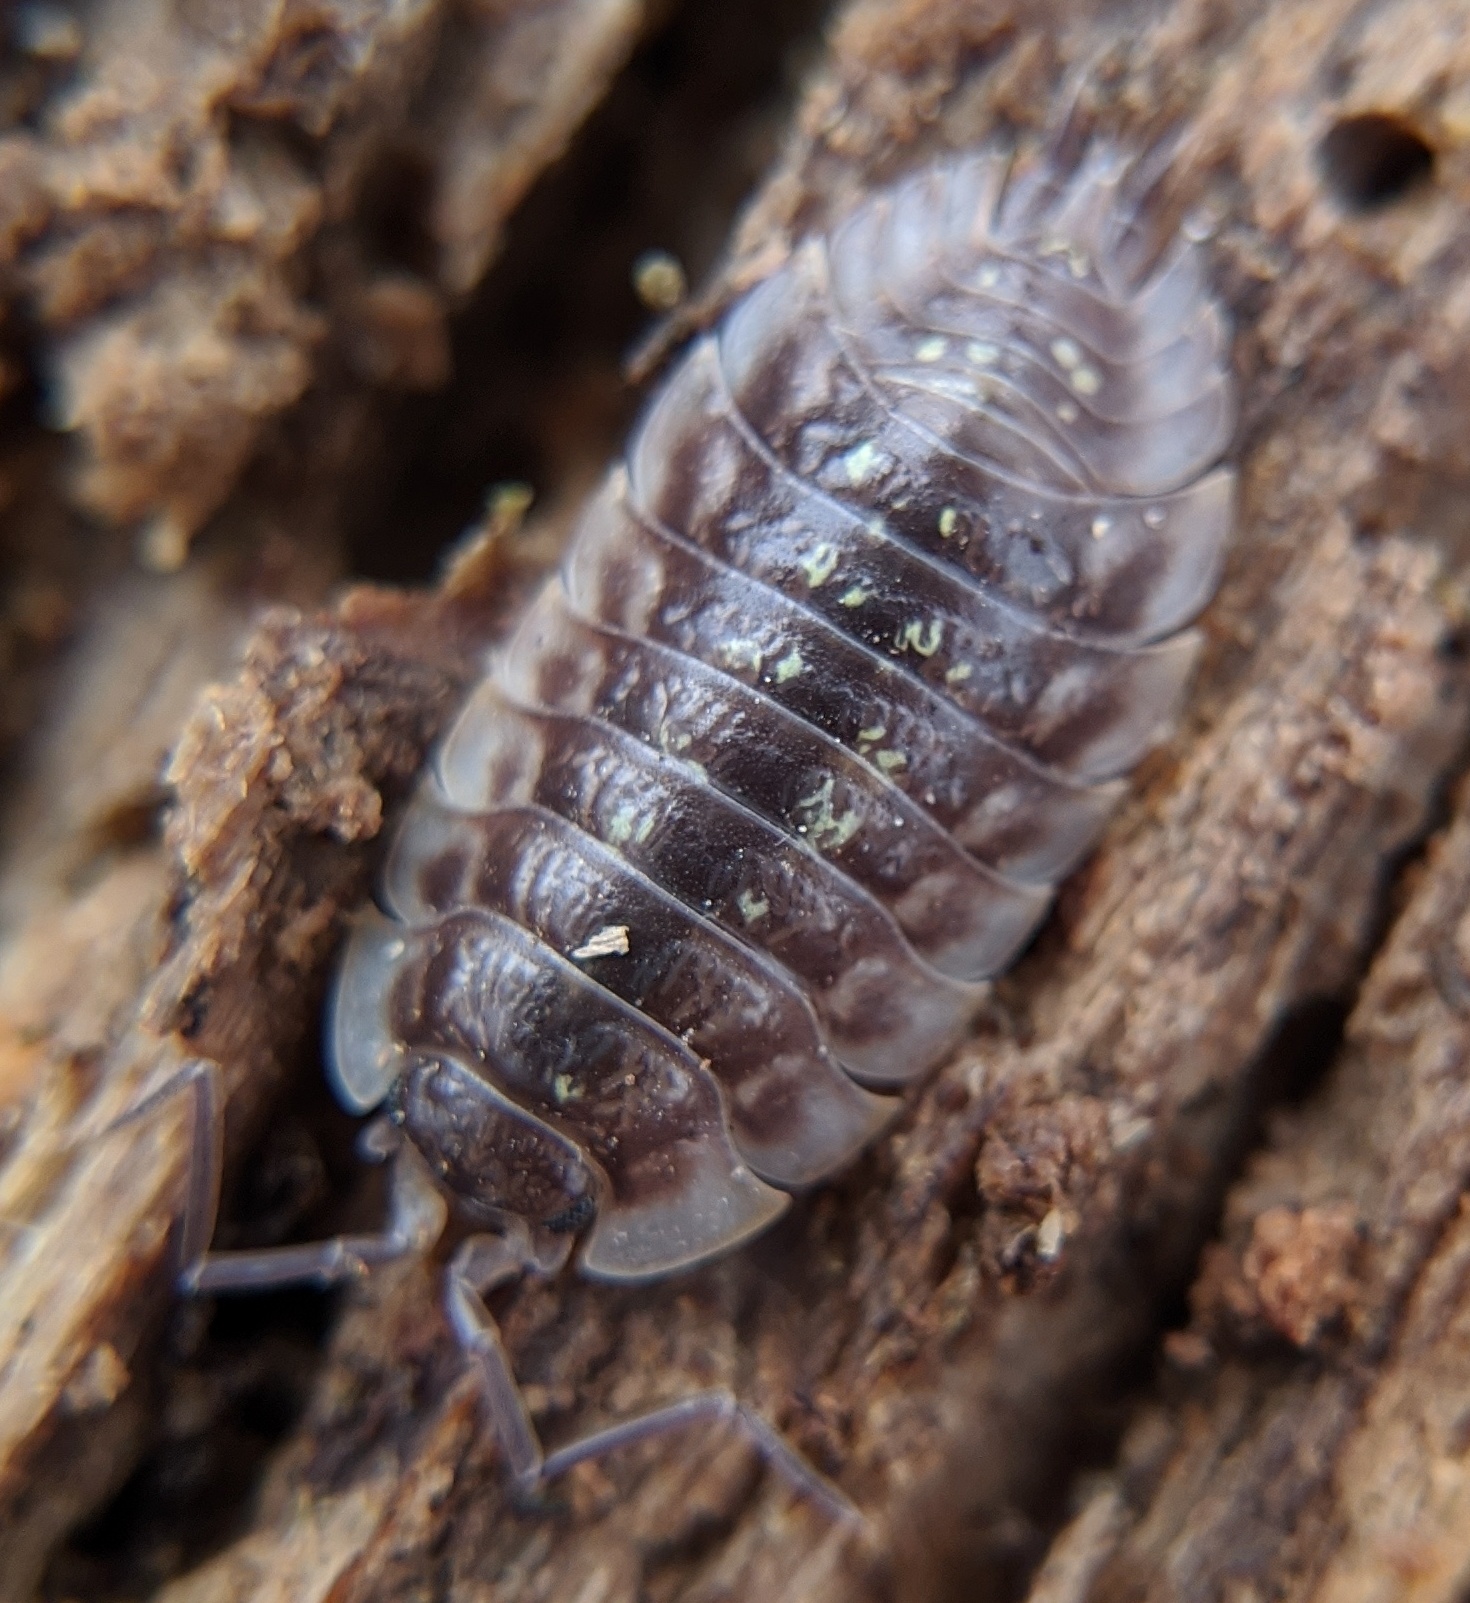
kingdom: Animalia
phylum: Arthropoda
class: Malacostraca
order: Isopoda
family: Oniscidae
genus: Oniscus
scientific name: Oniscus asellus
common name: Common shiny woodlouse
